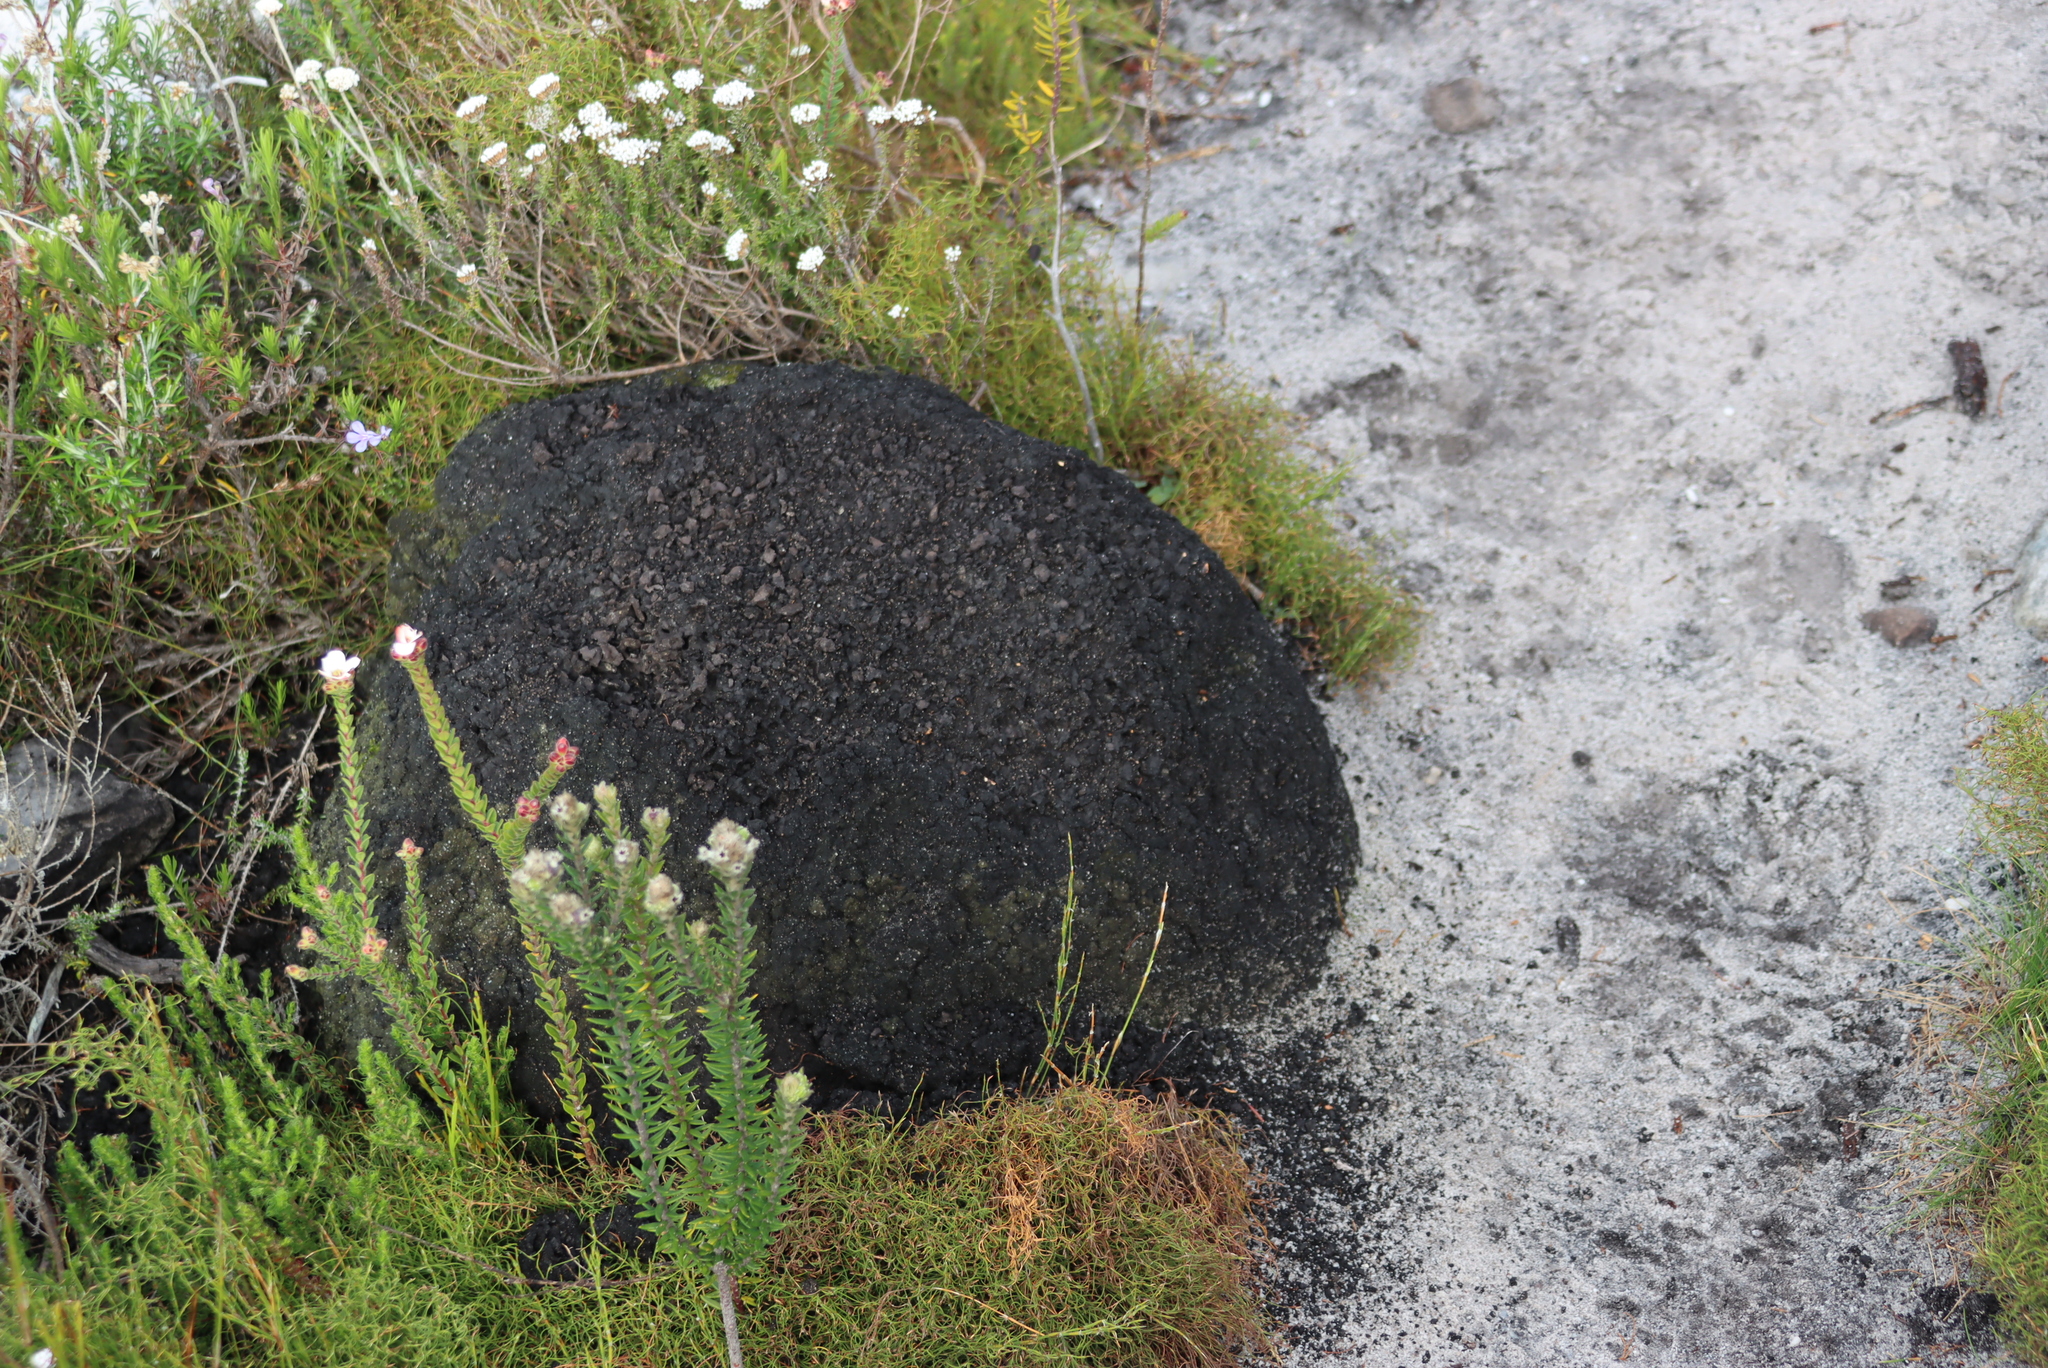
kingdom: Animalia
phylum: Arthropoda
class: Insecta
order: Blattodea
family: Termitidae
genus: Amitermes
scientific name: Amitermes hastatus
